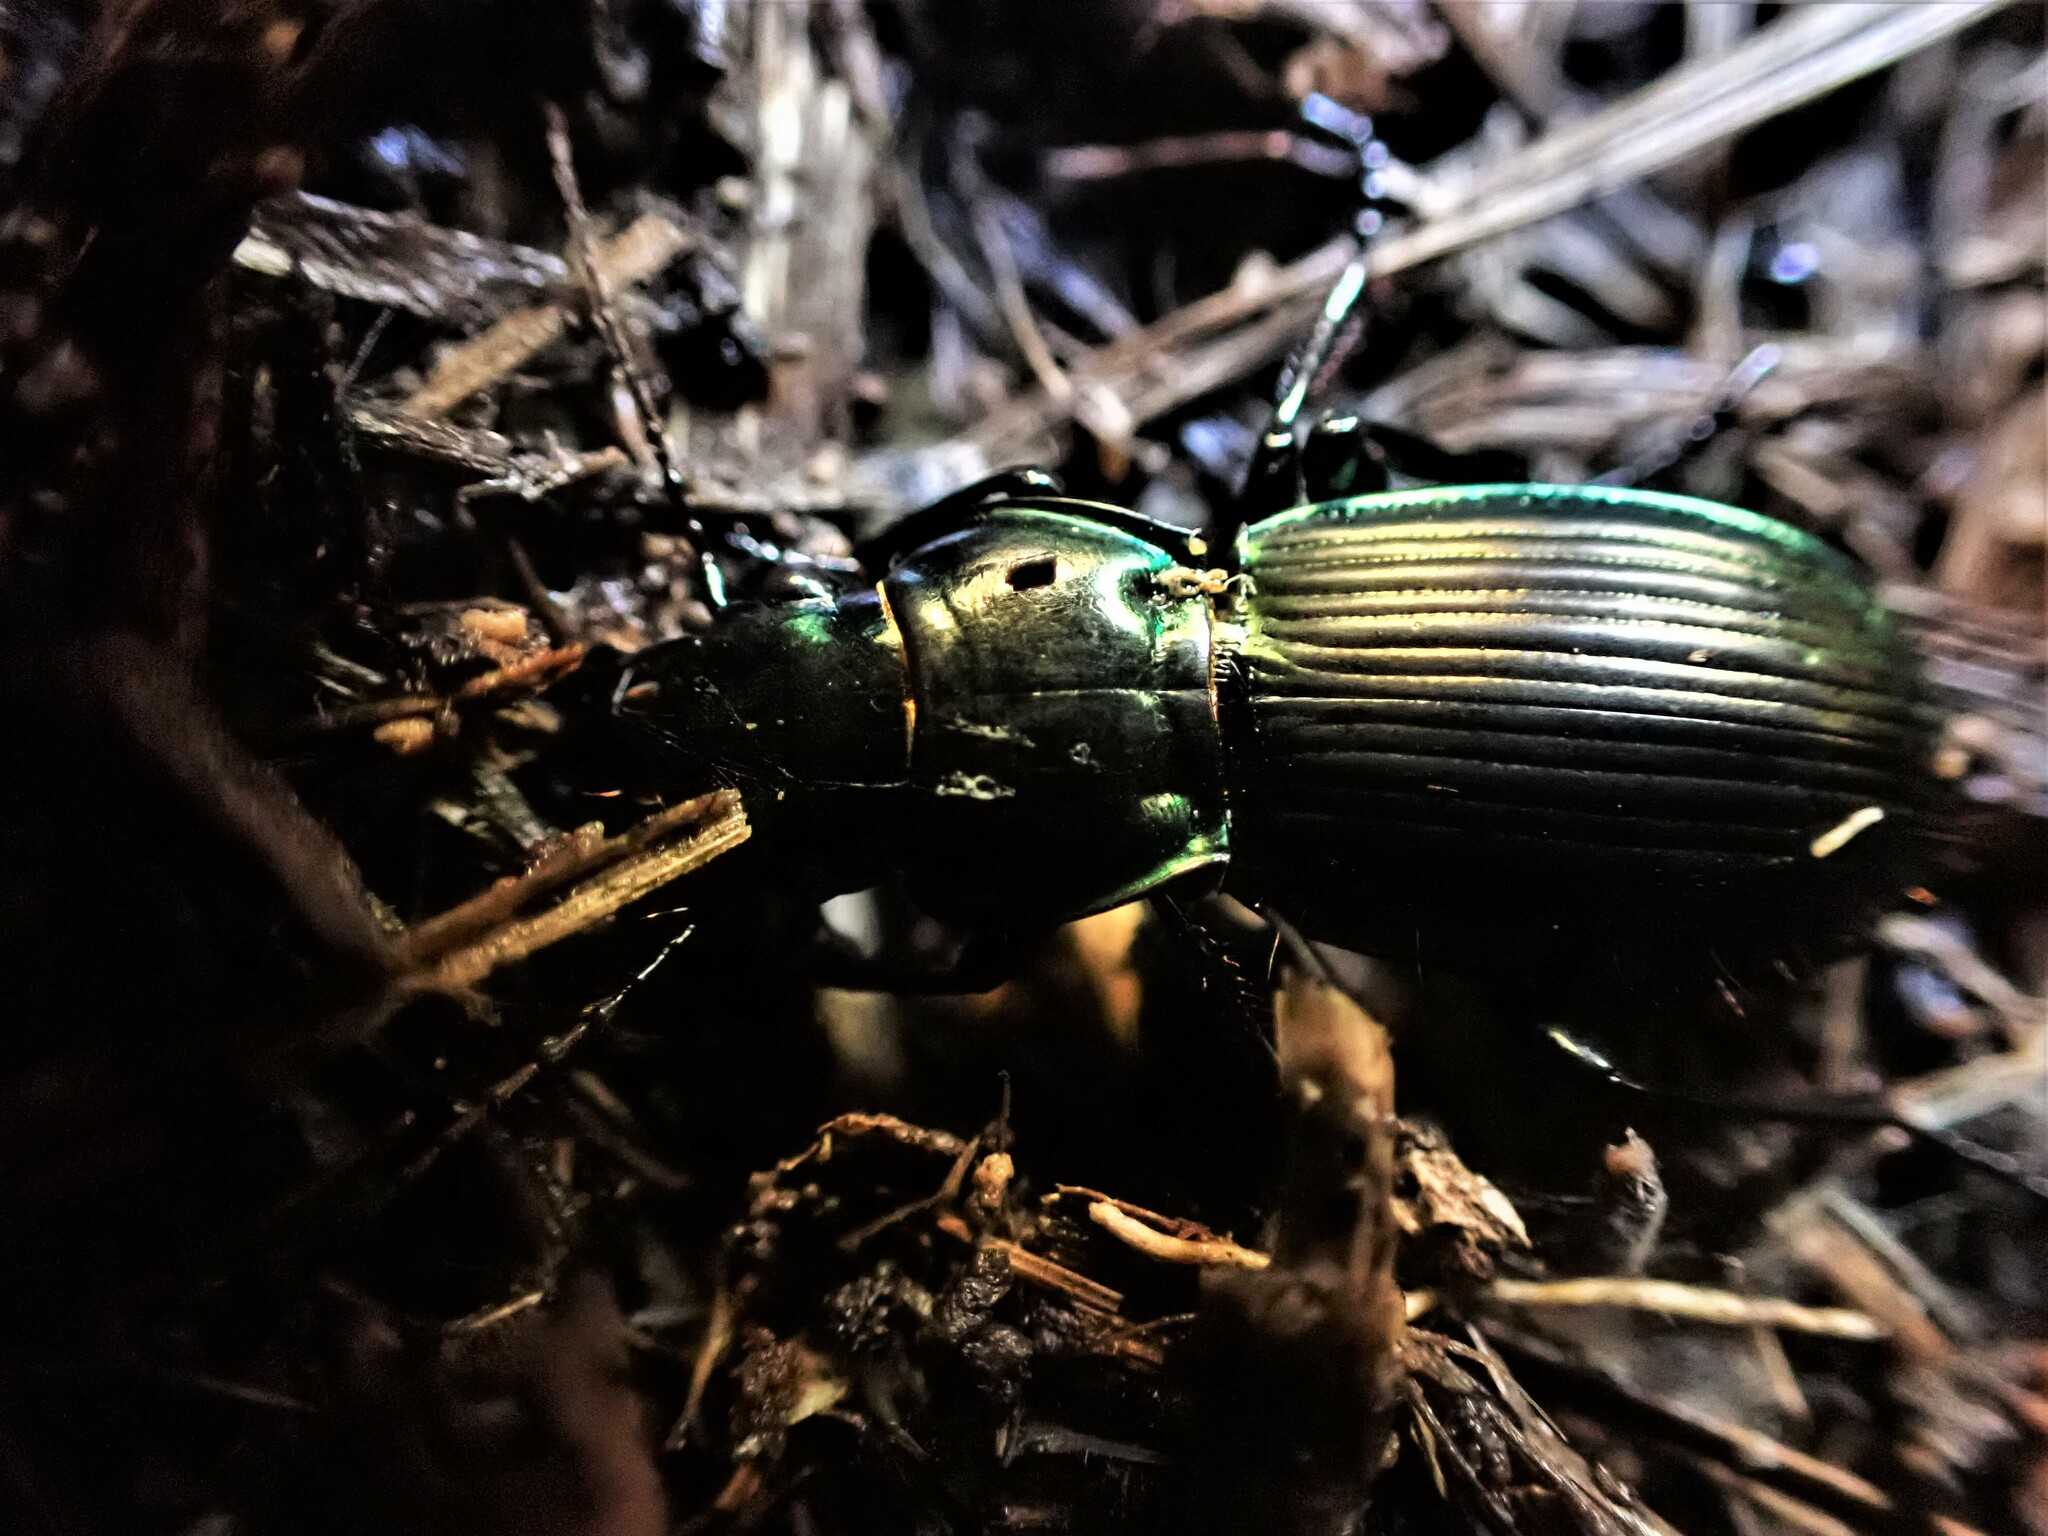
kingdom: Animalia
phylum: Arthropoda
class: Insecta
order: Coleoptera
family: Carabidae
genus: Megadromus
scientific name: Megadromus antarcticus
